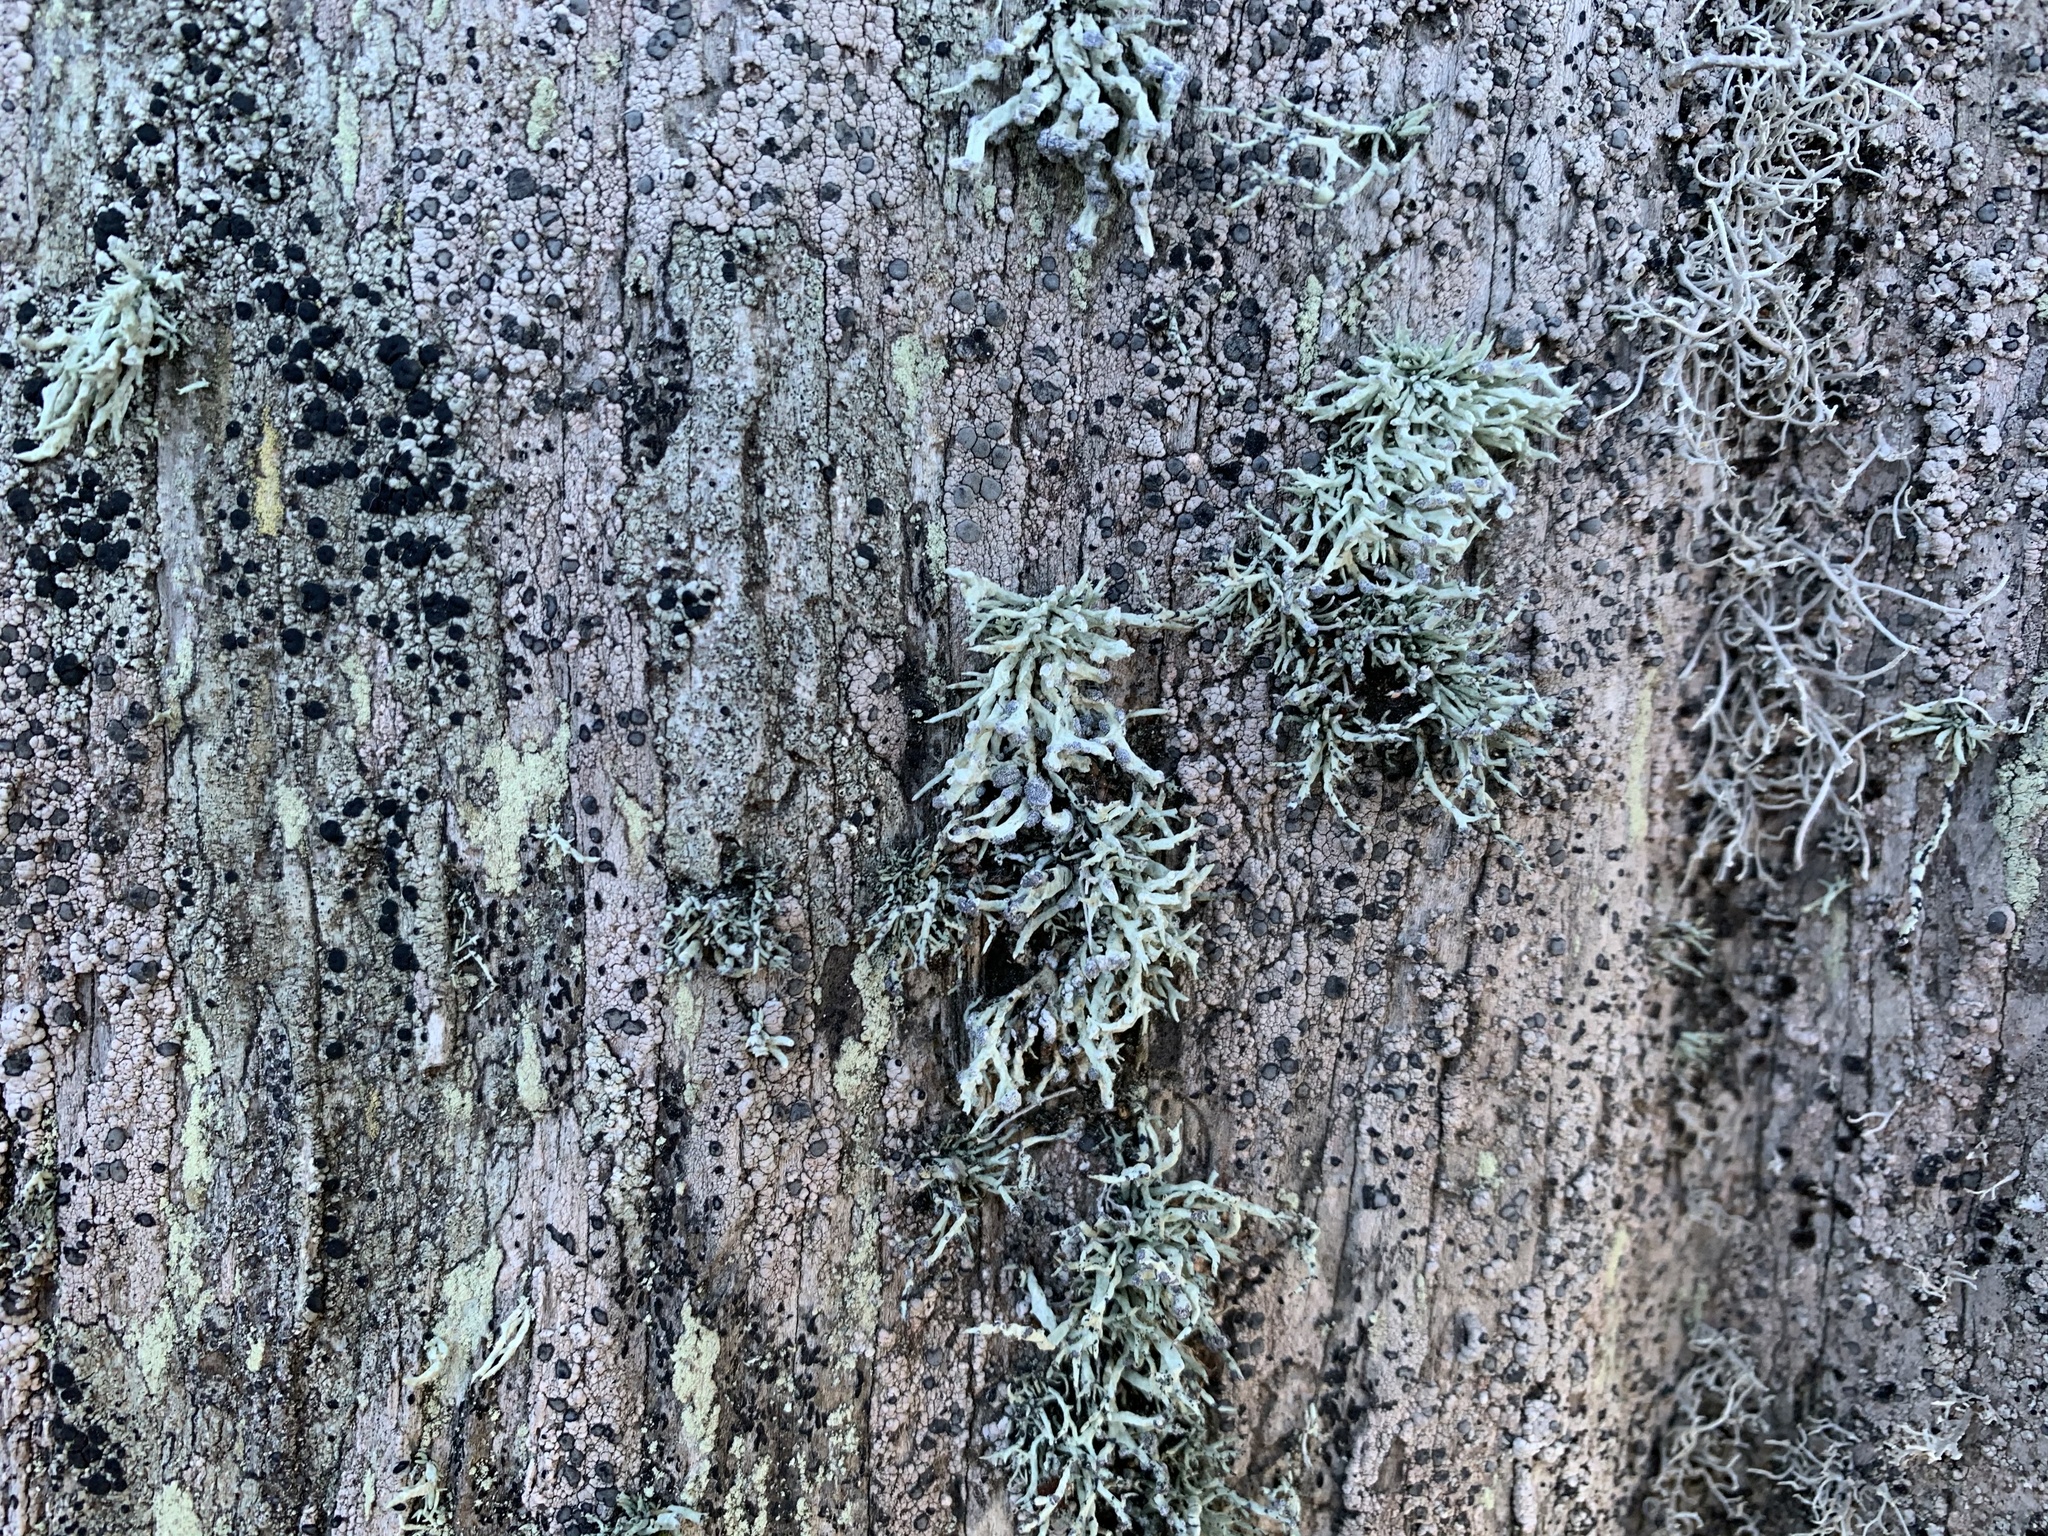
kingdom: Fungi
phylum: Ascomycota
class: Lecanoromycetes
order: Lecanorales
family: Ramalinaceae
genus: Niebla
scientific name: Niebla cephalota
